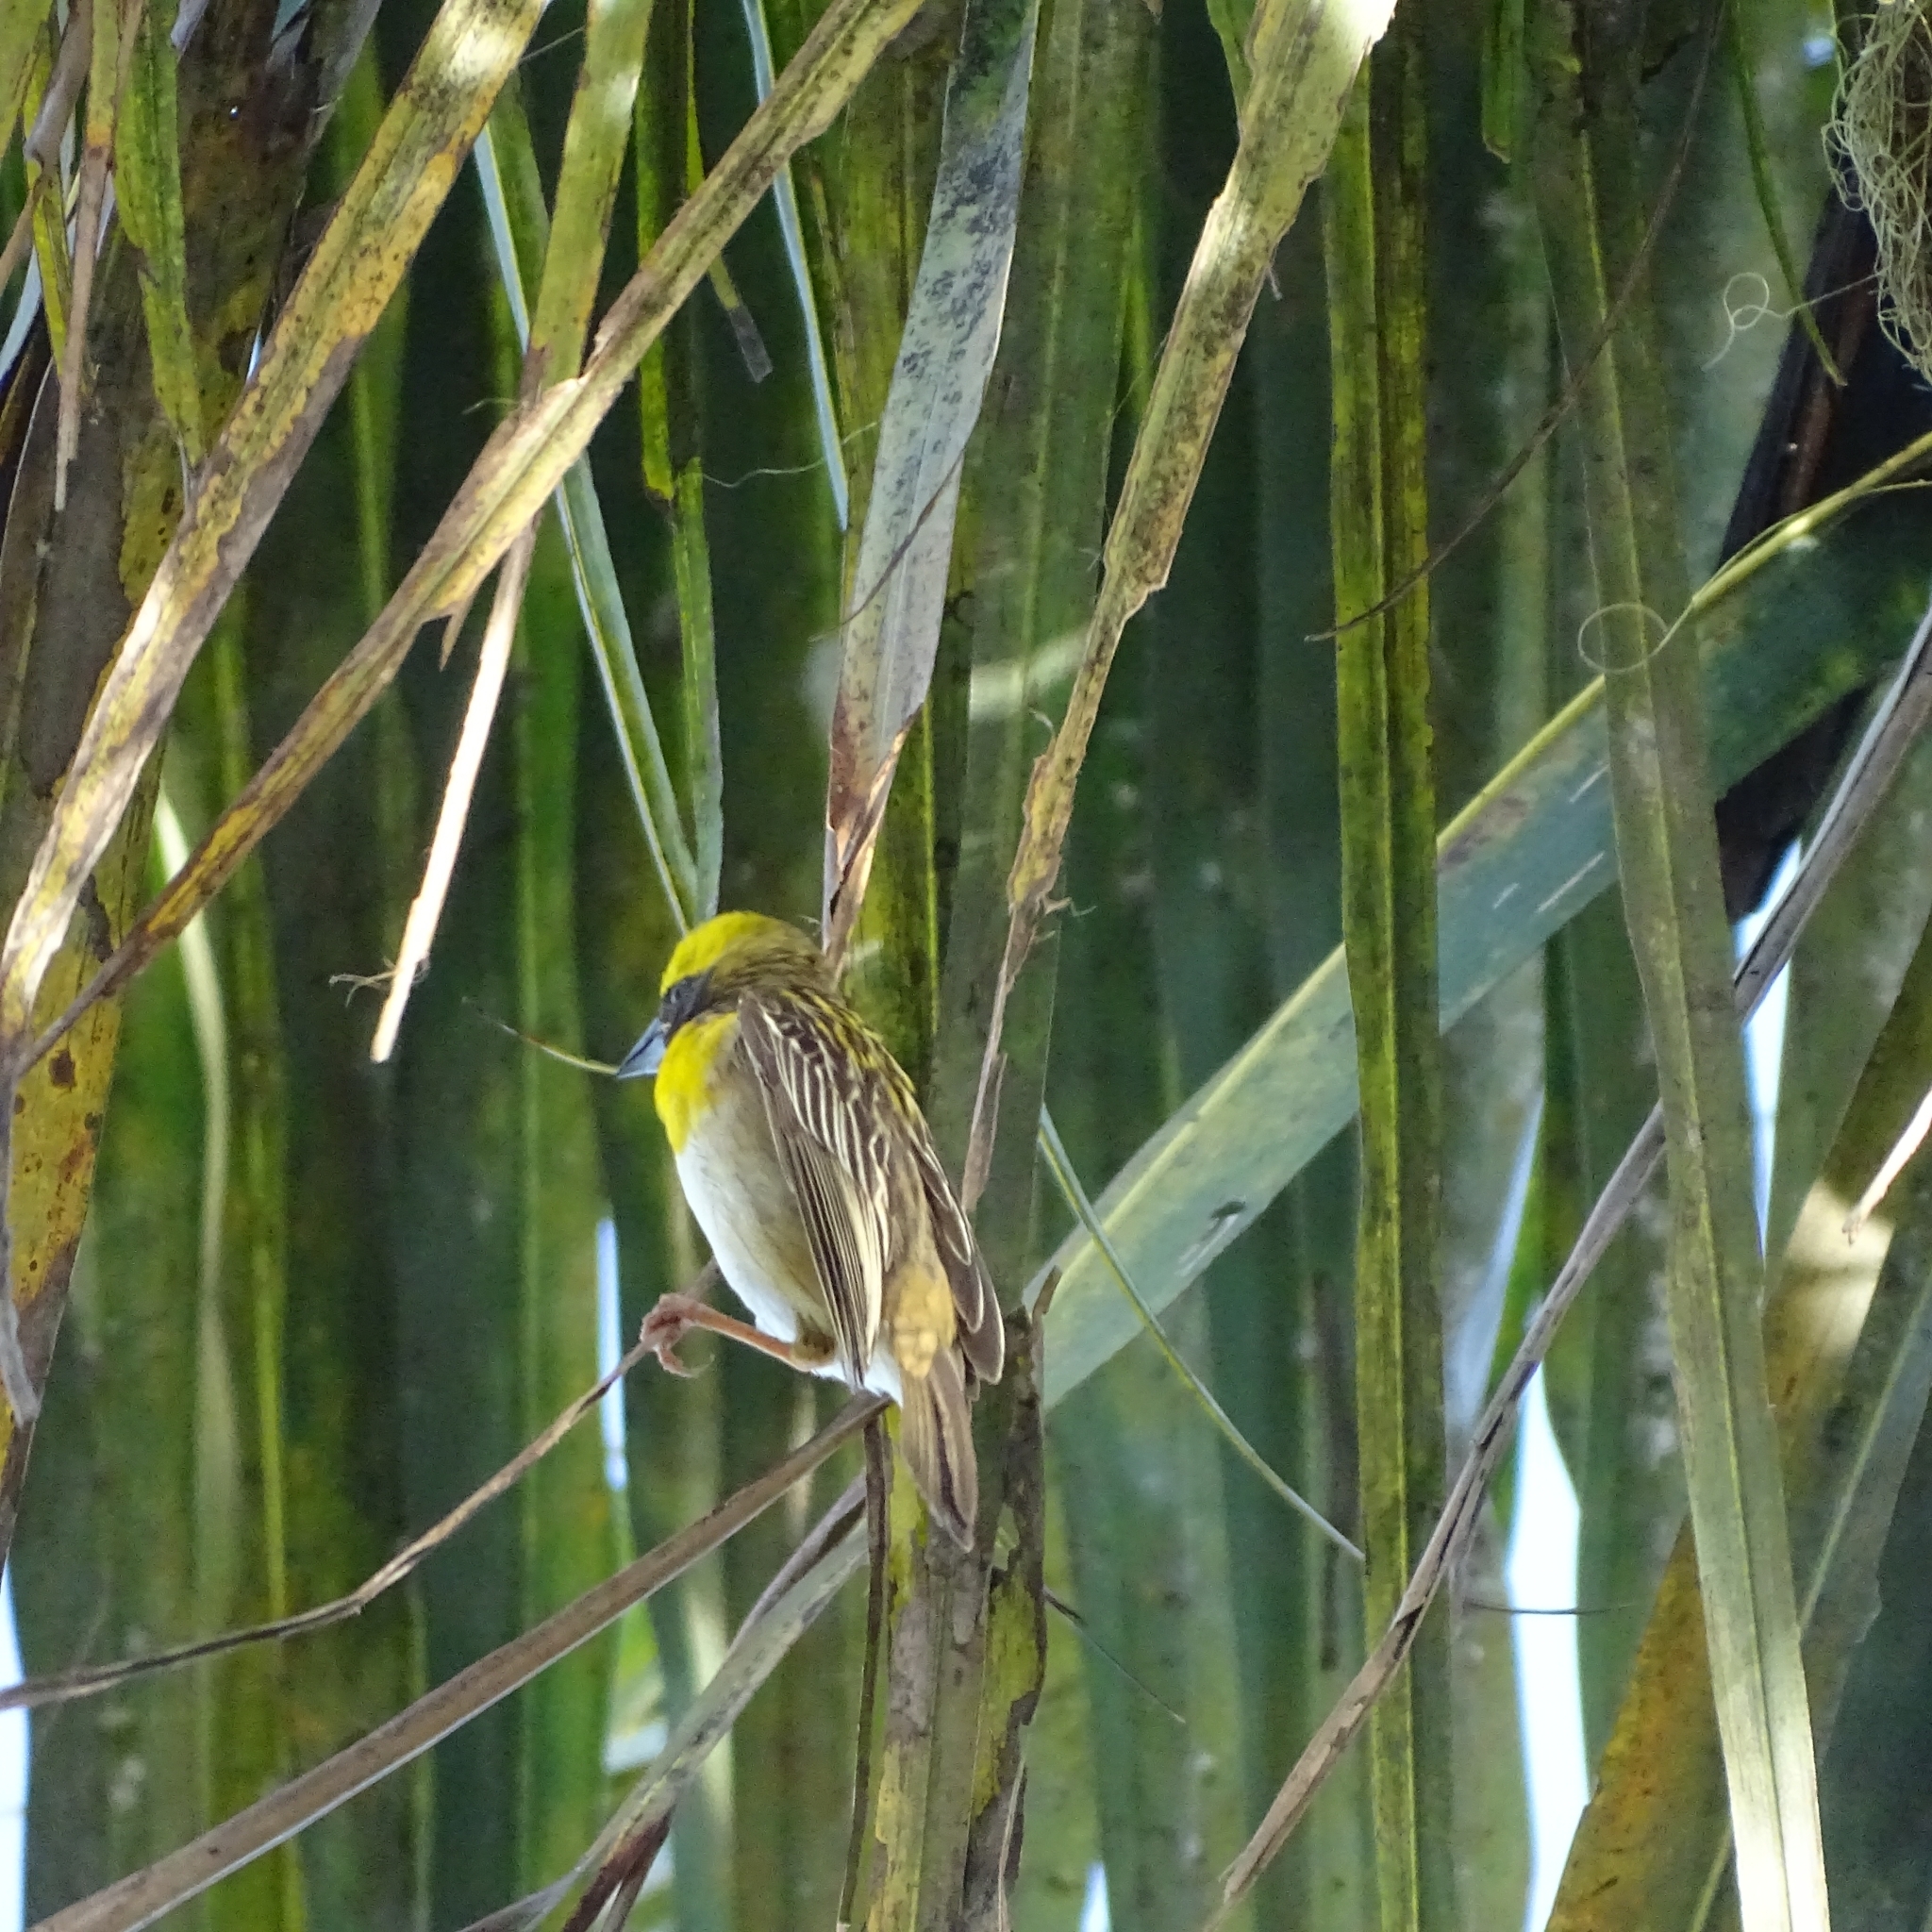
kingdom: Animalia
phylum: Chordata
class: Aves
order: Passeriformes
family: Ploceidae
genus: Ploceus
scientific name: Ploceus philippinus
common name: Baya weaver
